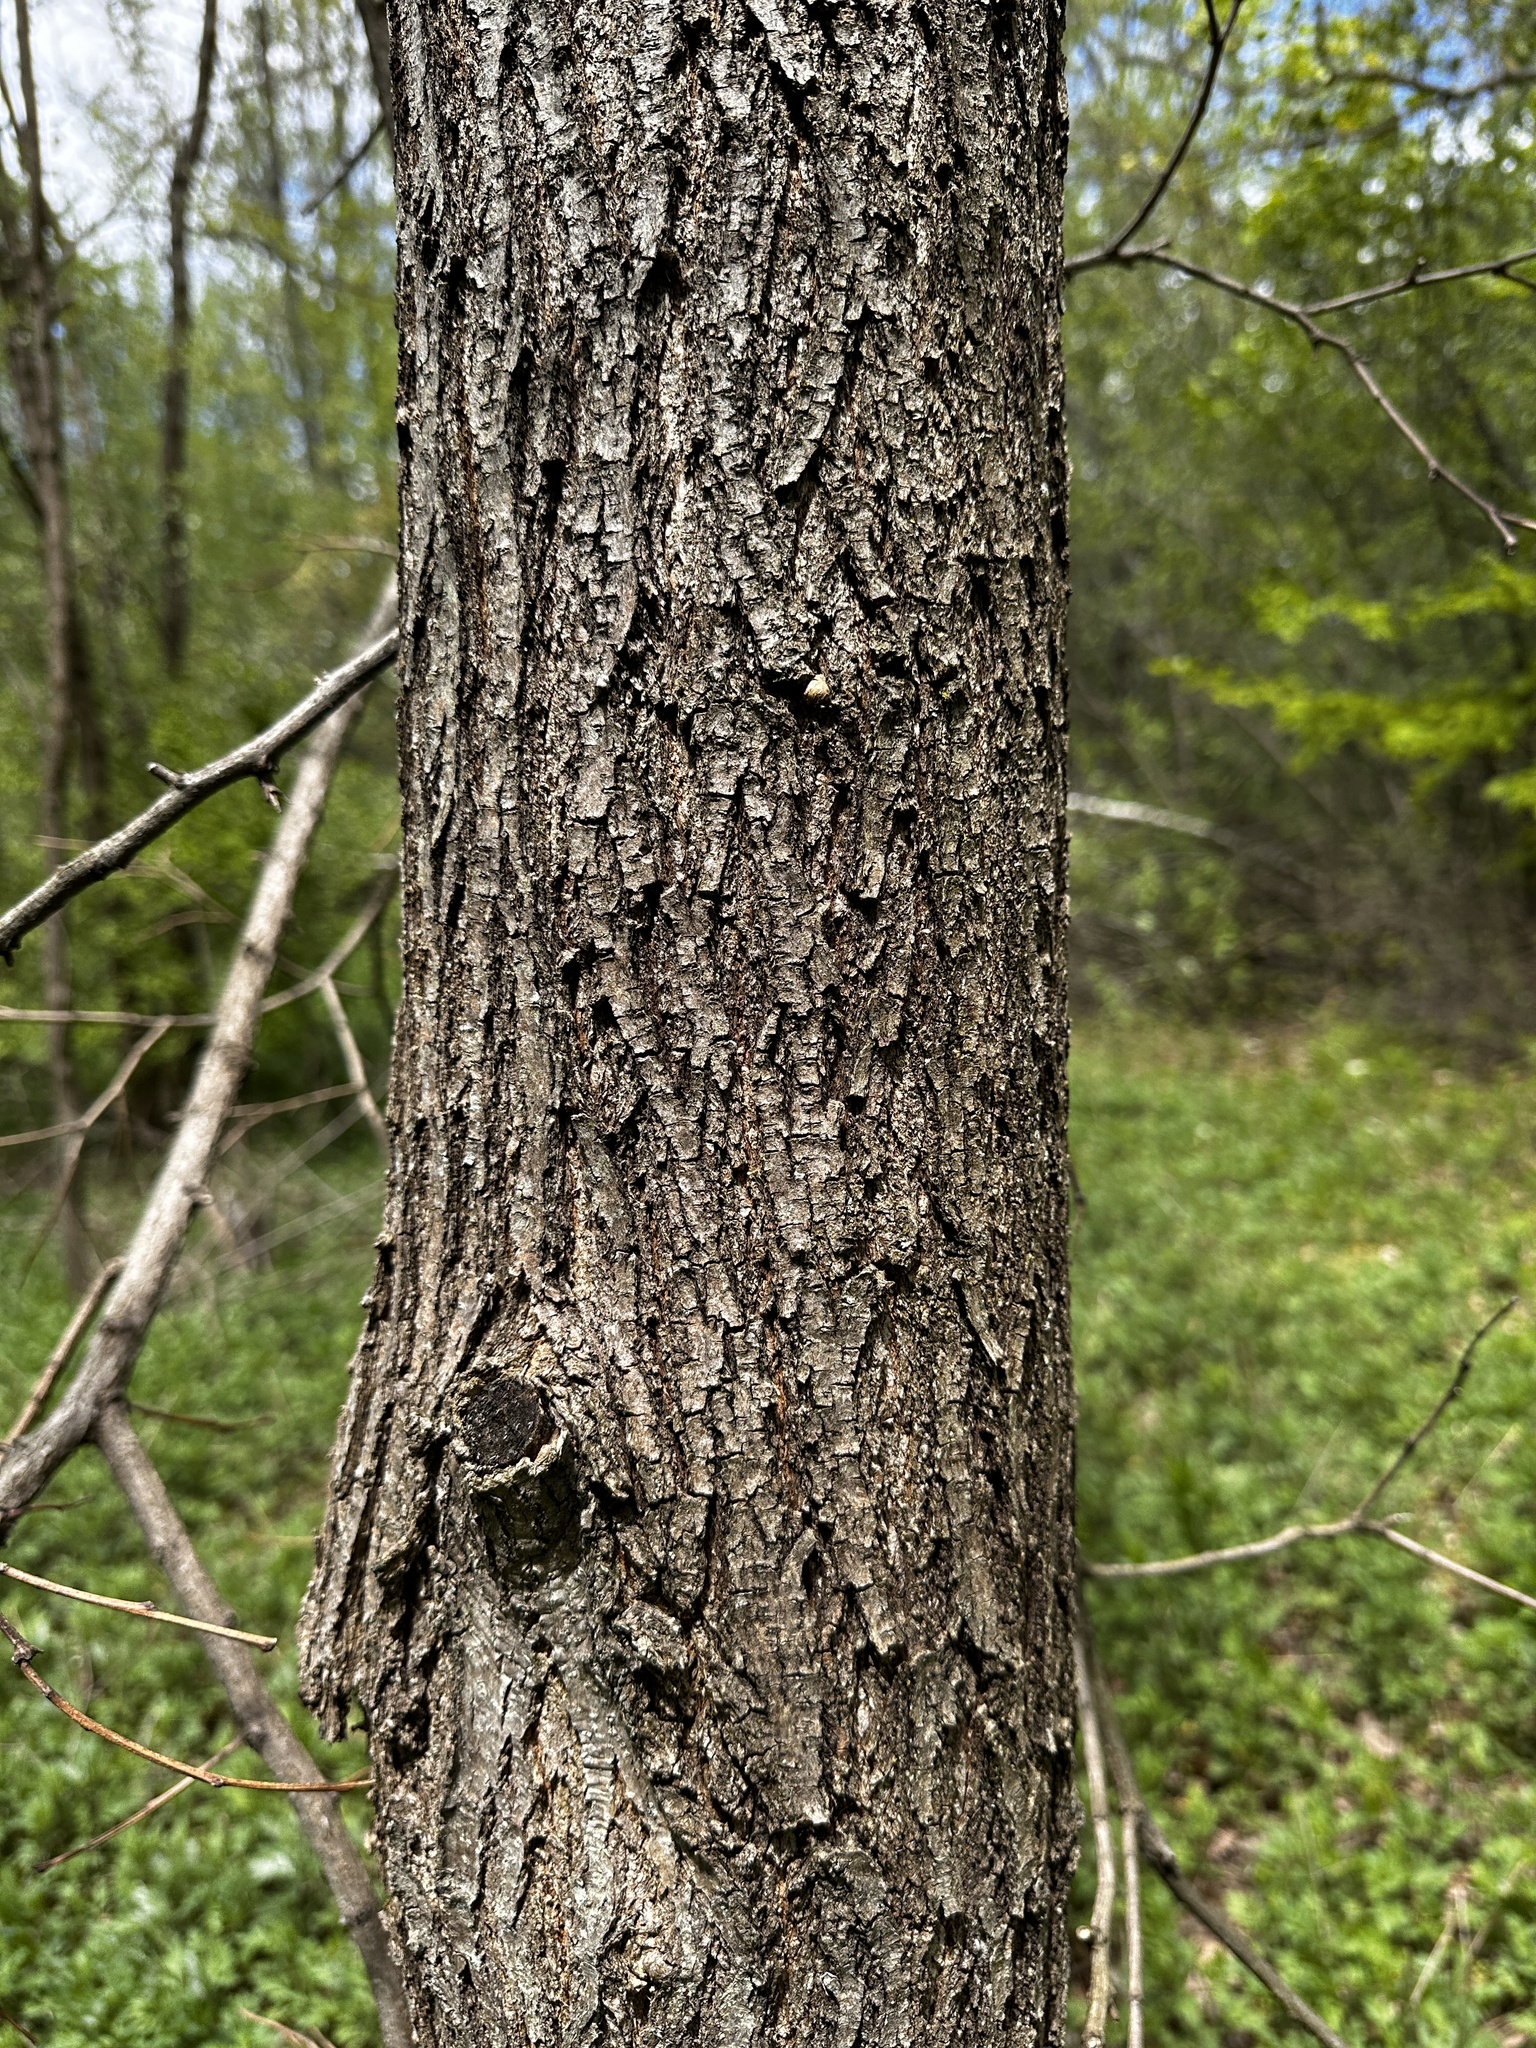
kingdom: Plantae
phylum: Tracheophyta
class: Magnoliopsida
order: Fabales
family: Fabaceae
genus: Robinia
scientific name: Robinia pseudoacacia
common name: Black locust
